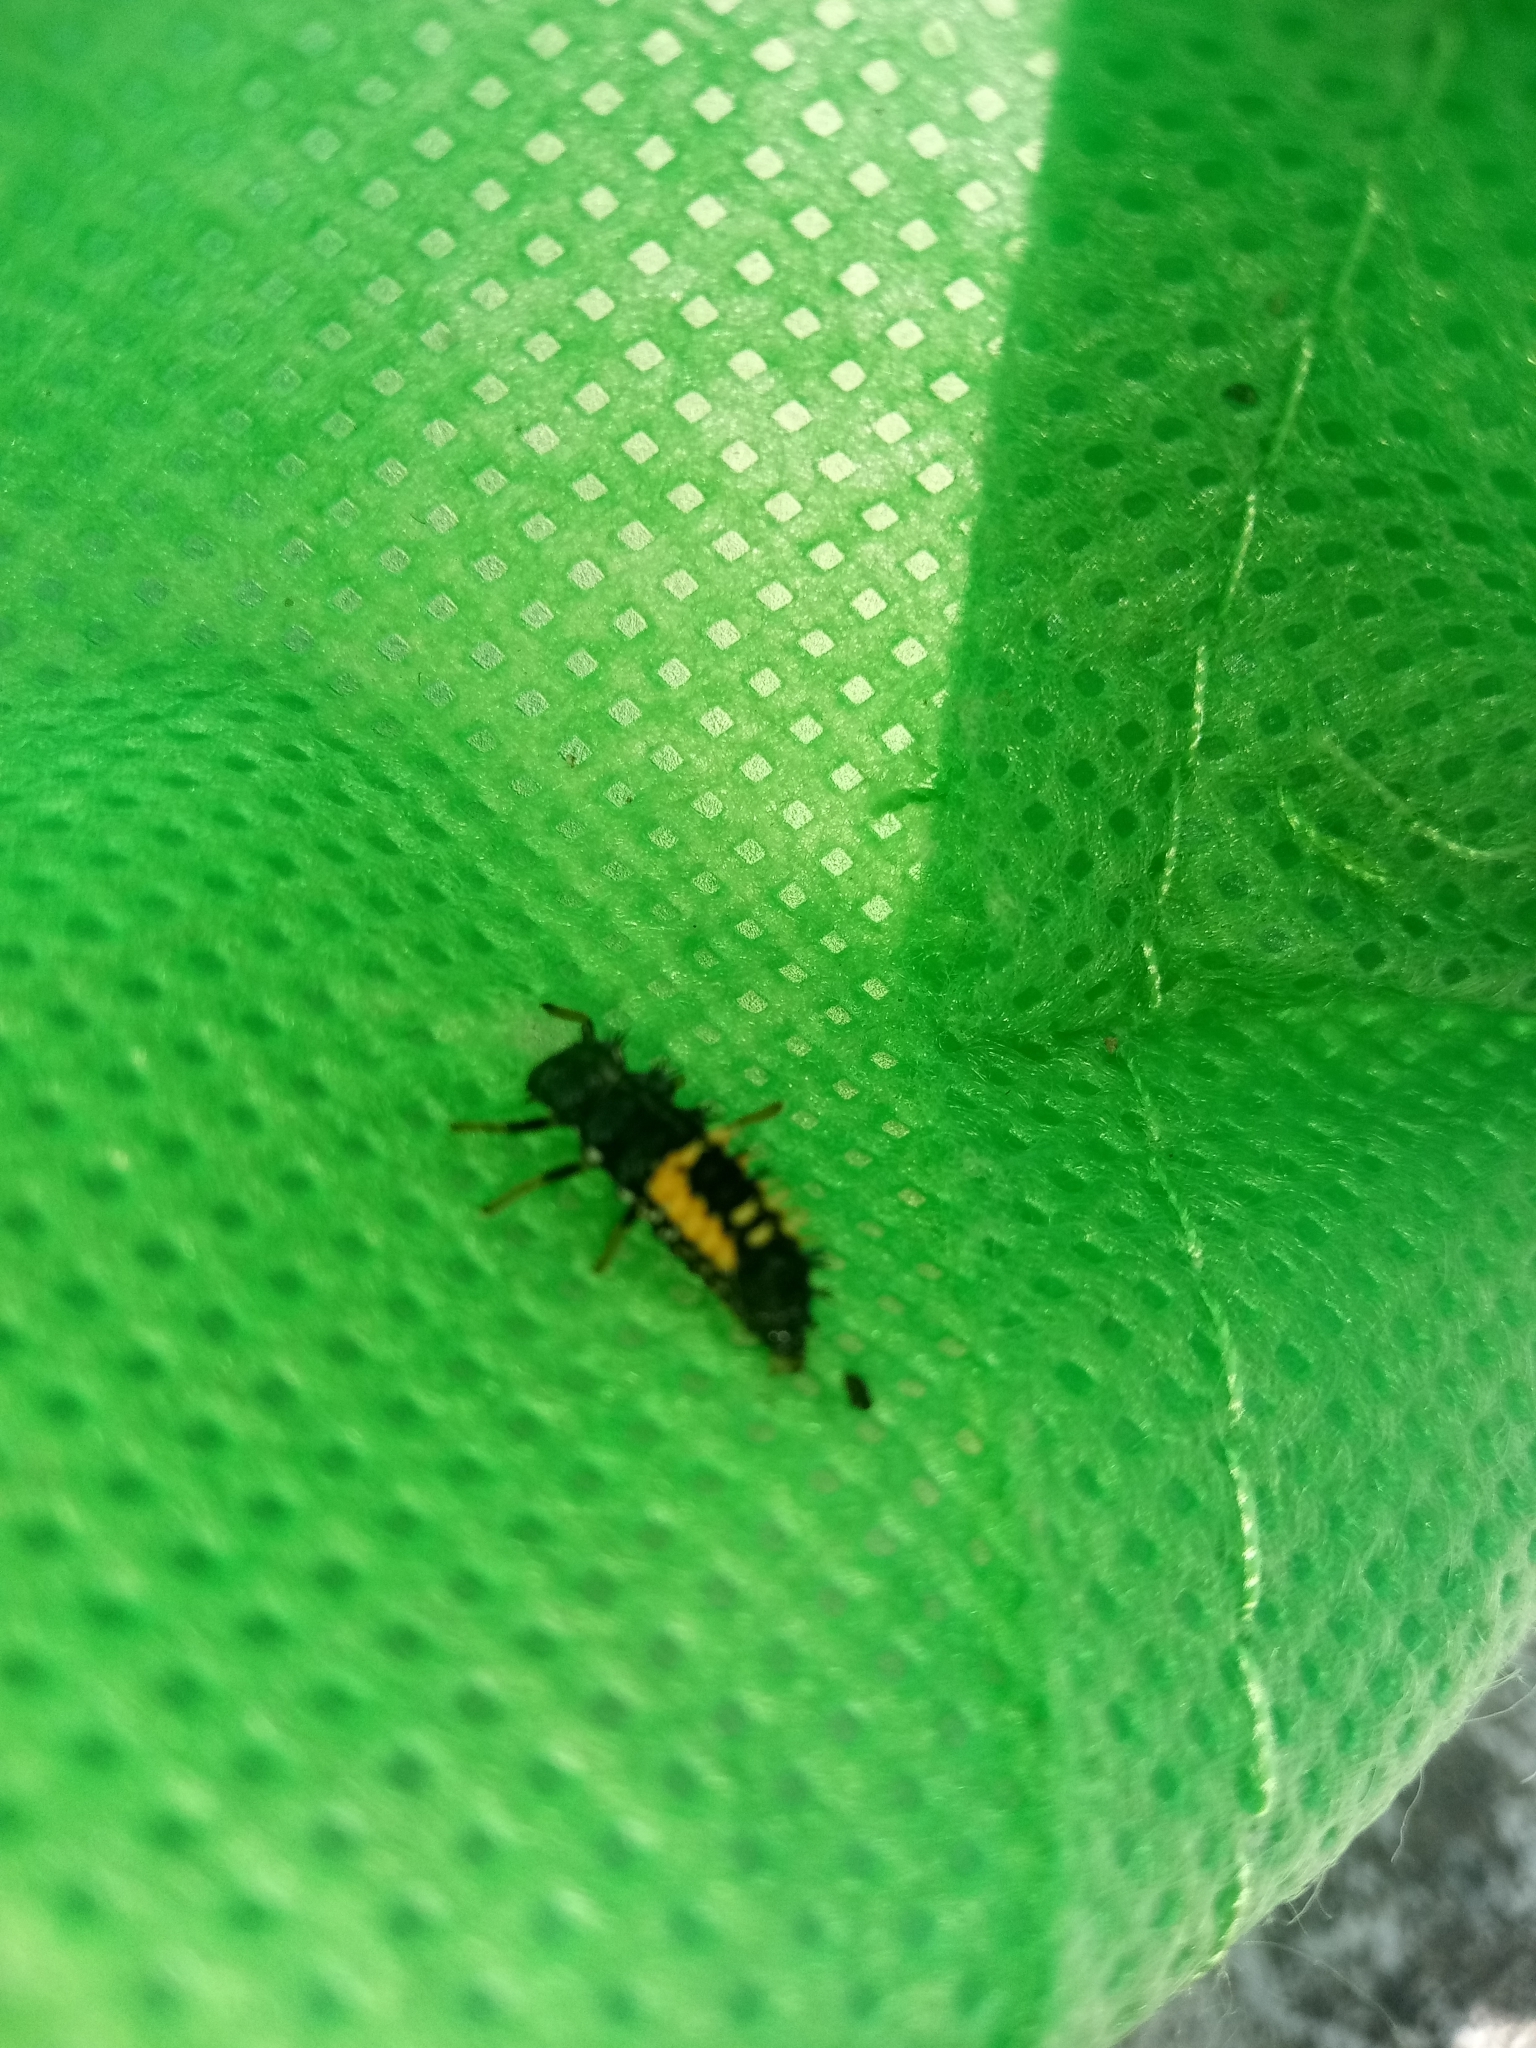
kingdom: Animalia
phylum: Arthropoda
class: Insecta
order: Coleoptera
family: Coccinellidae
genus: Harmonia
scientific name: Harmonia axyridis
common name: Harlequin ladybird
